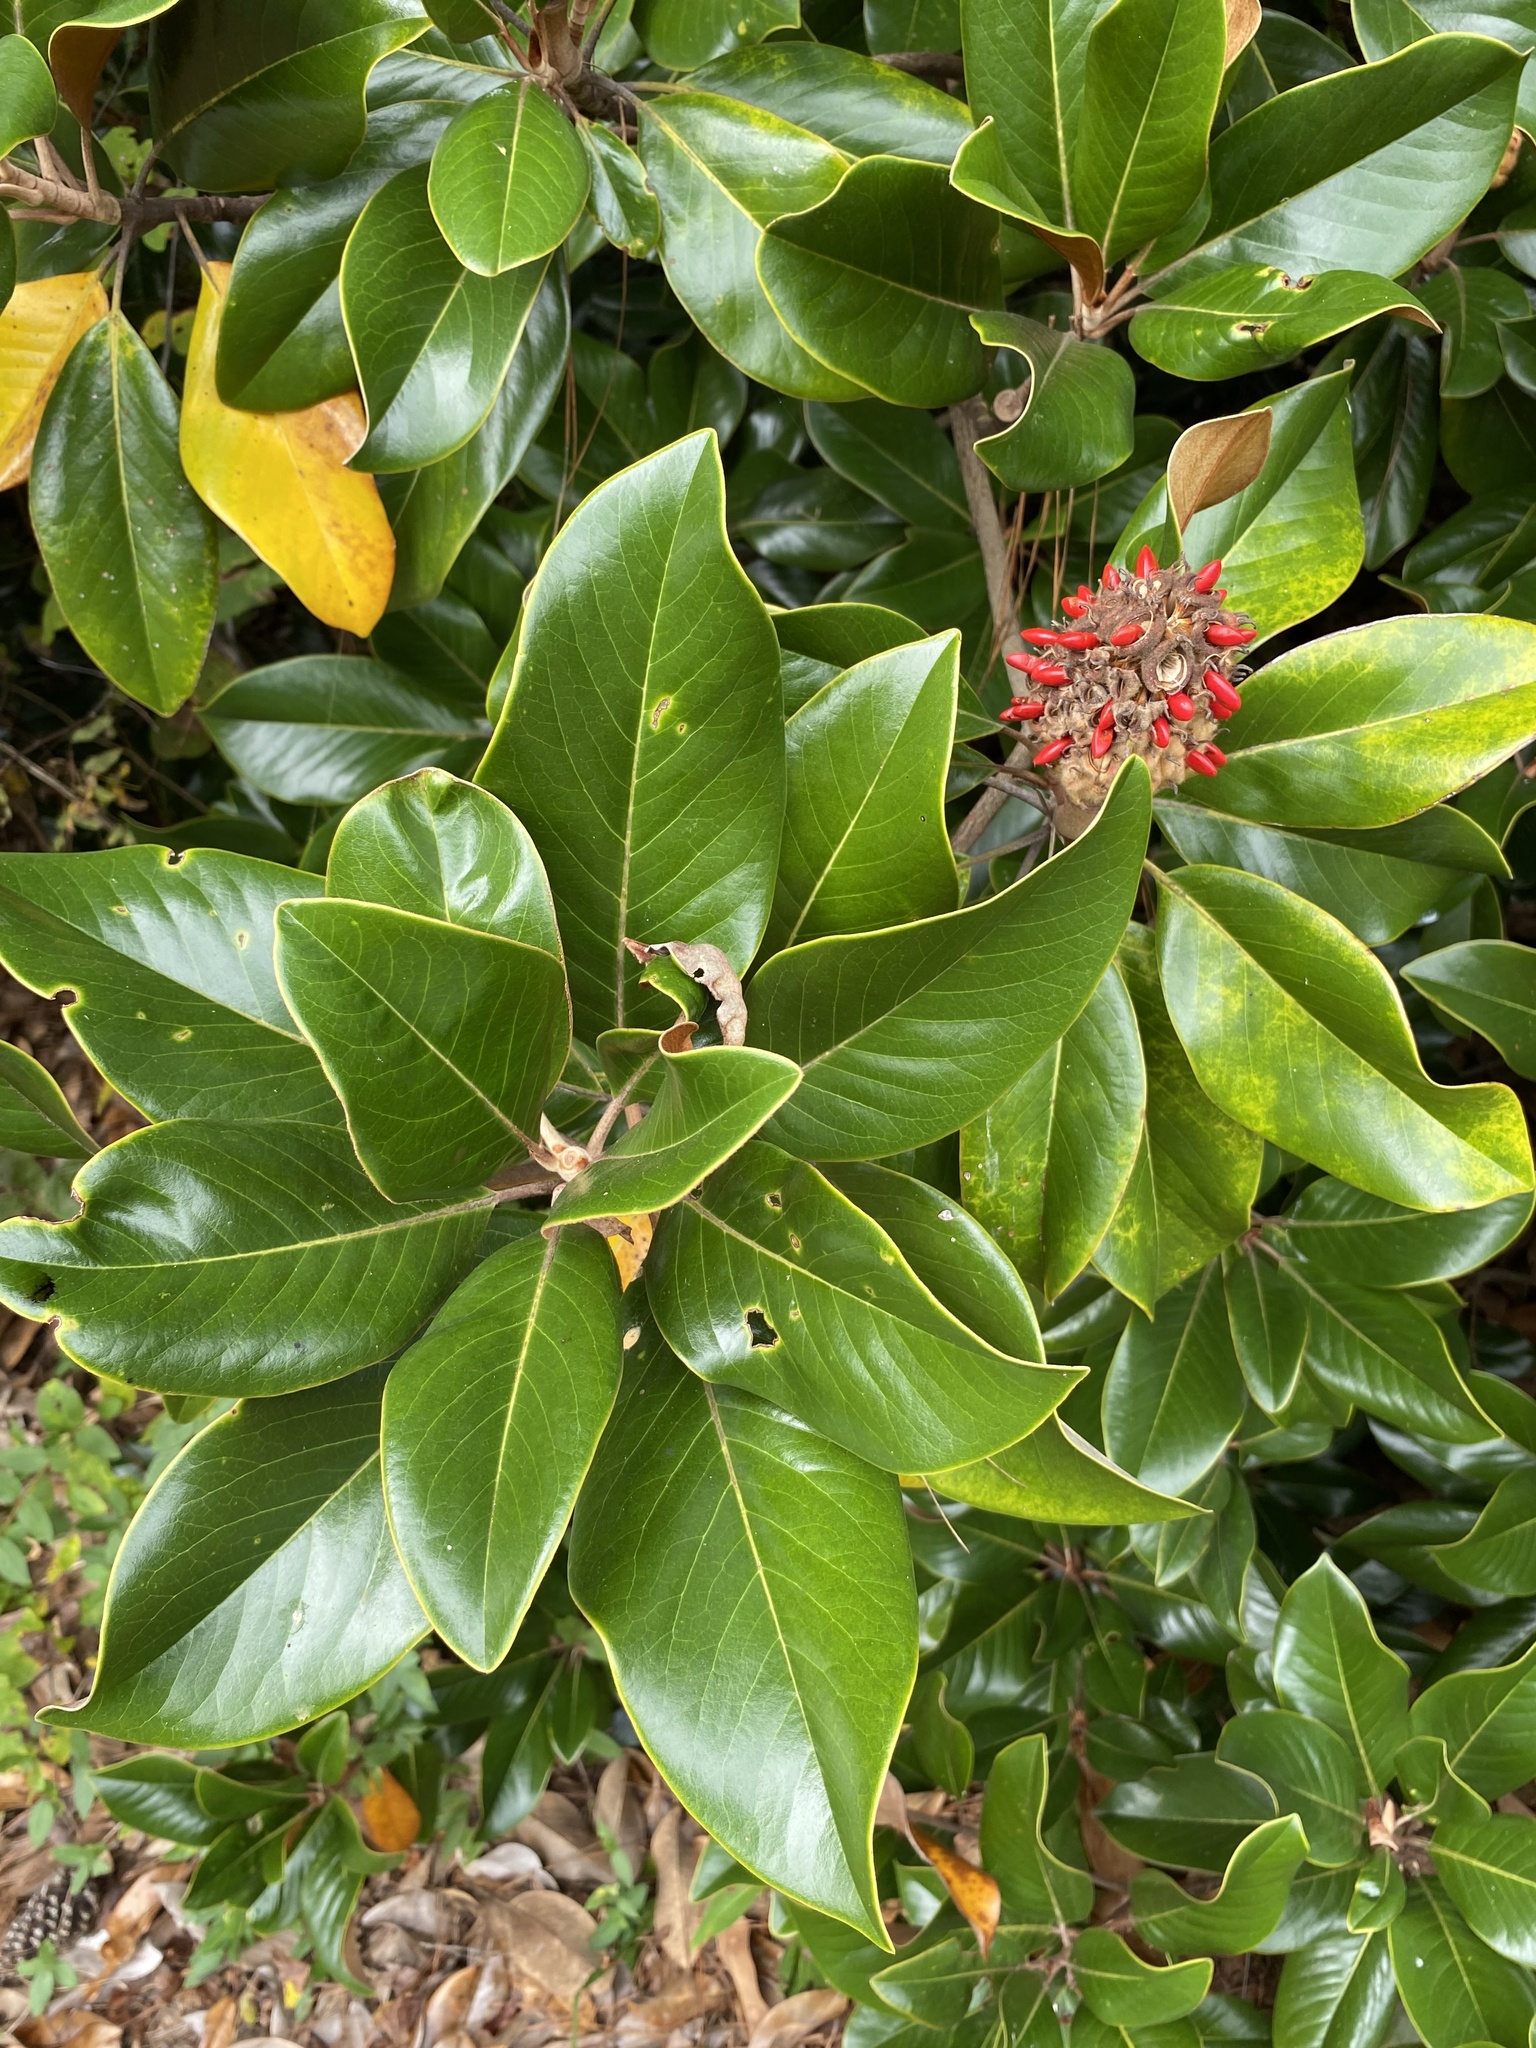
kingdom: Plantae
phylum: Tracheophyta
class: Magnoliopsida
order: Magnoliales
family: Magnoliaceae
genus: Magnolia
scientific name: Magnolia grandiflora
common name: Southern magnolia
